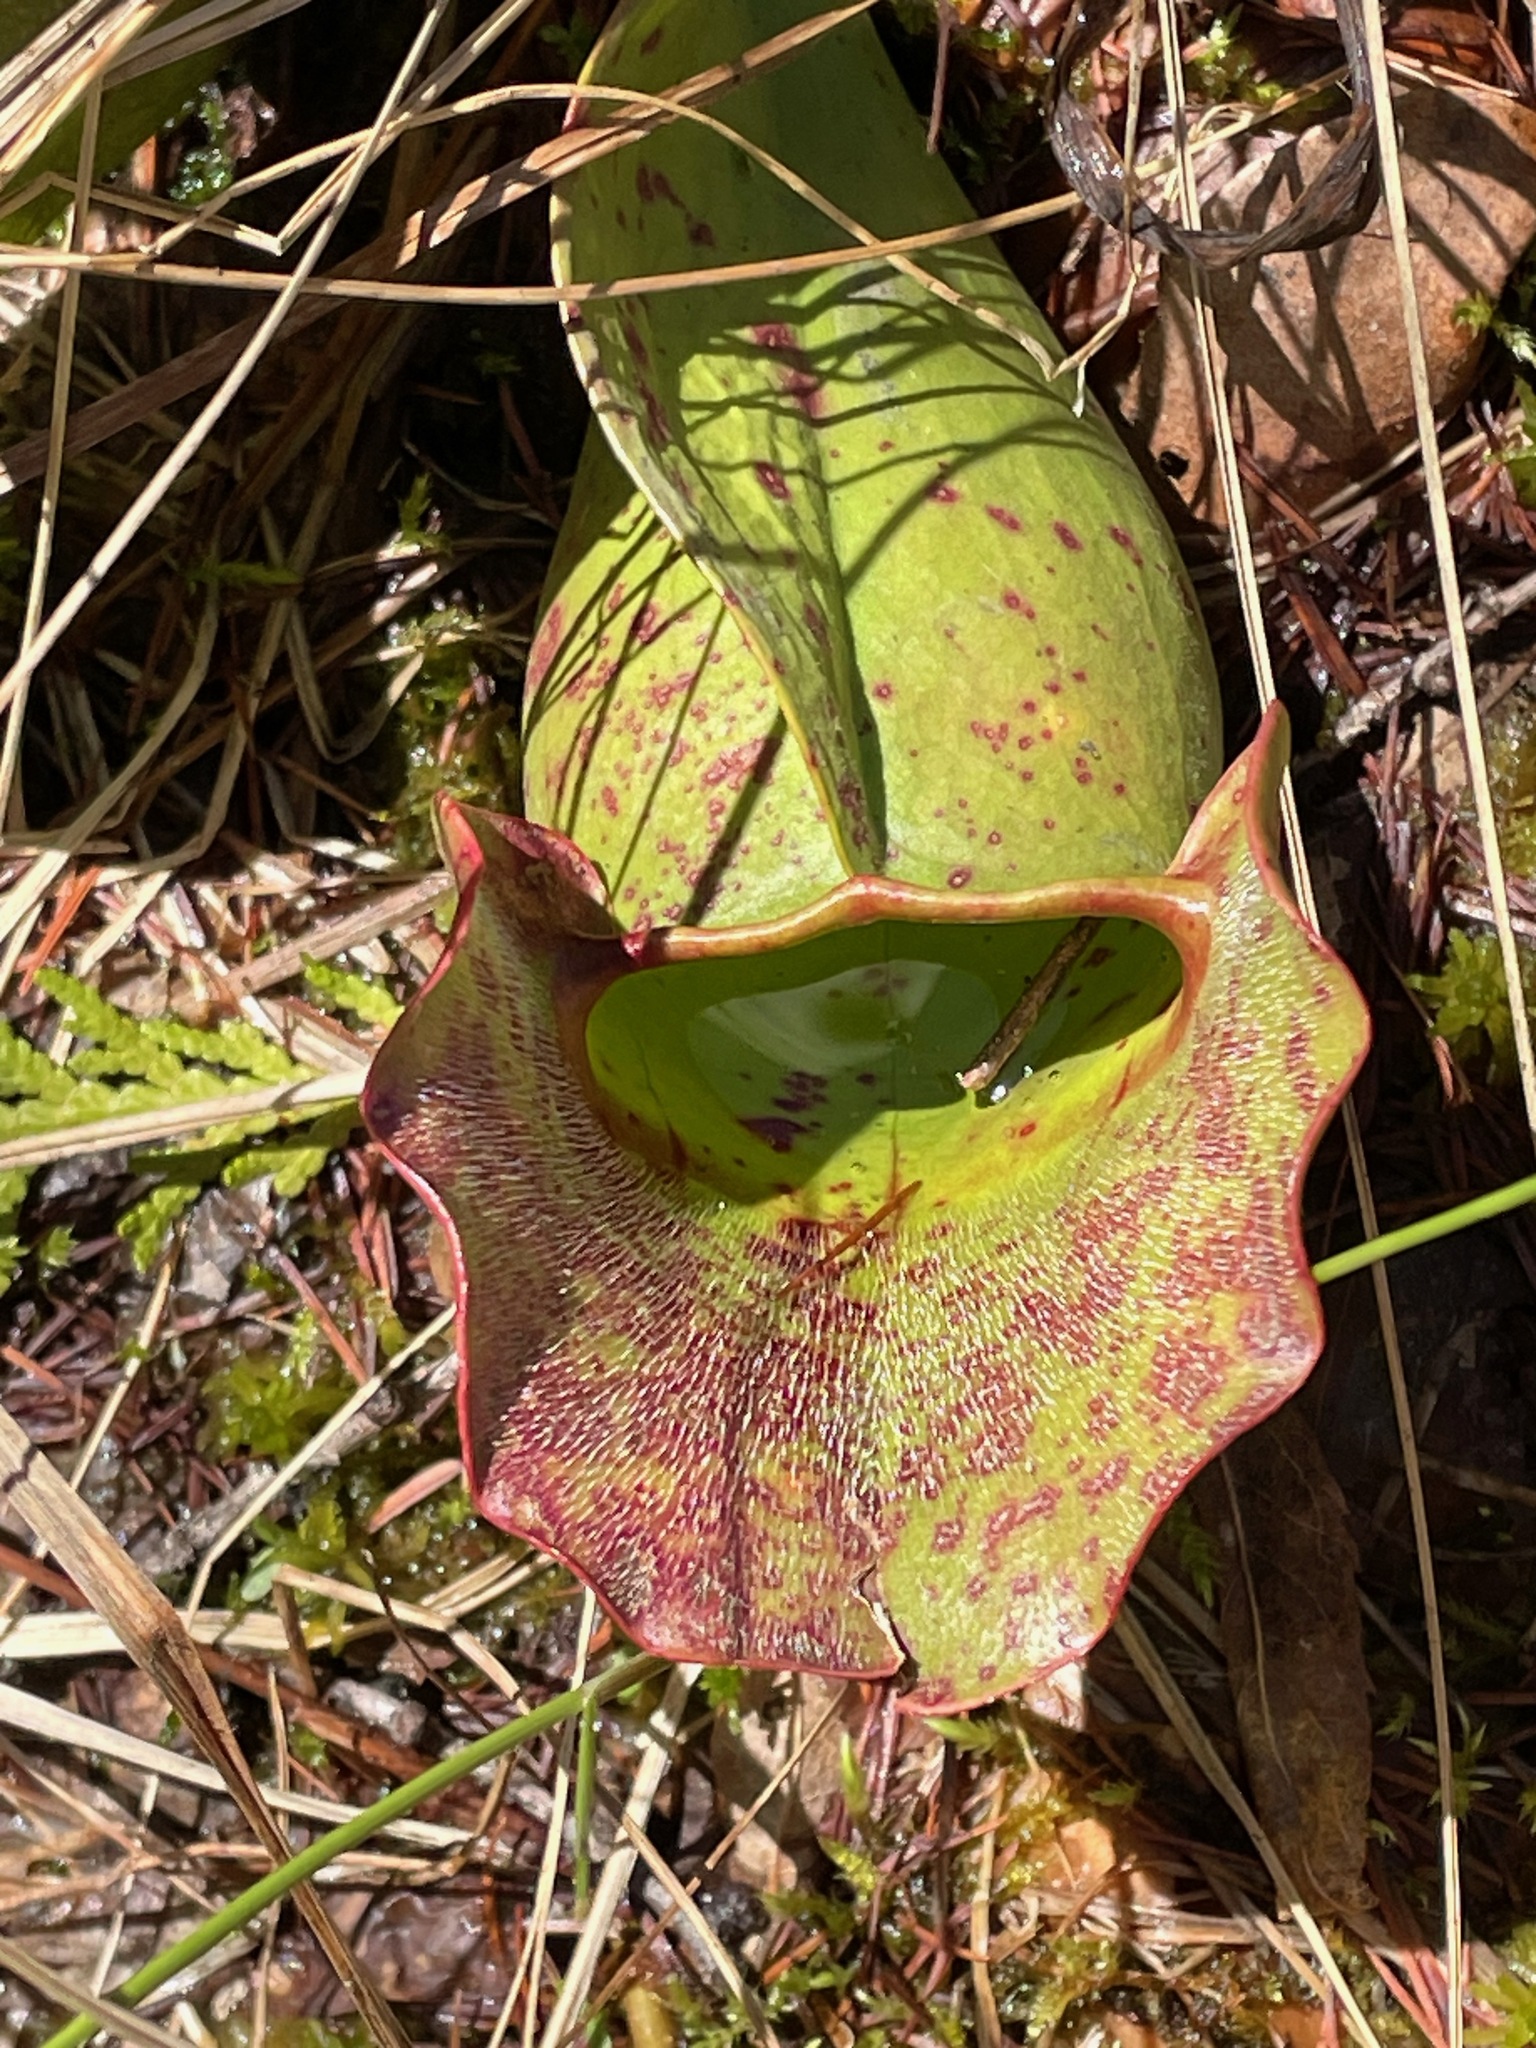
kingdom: Plantae
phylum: Tracheophyta
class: Magnoliopsida
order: Ericales
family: Sarraceniaceae
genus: Sarracenia
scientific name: Sarracenia purpurea
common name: Pitcherplant
